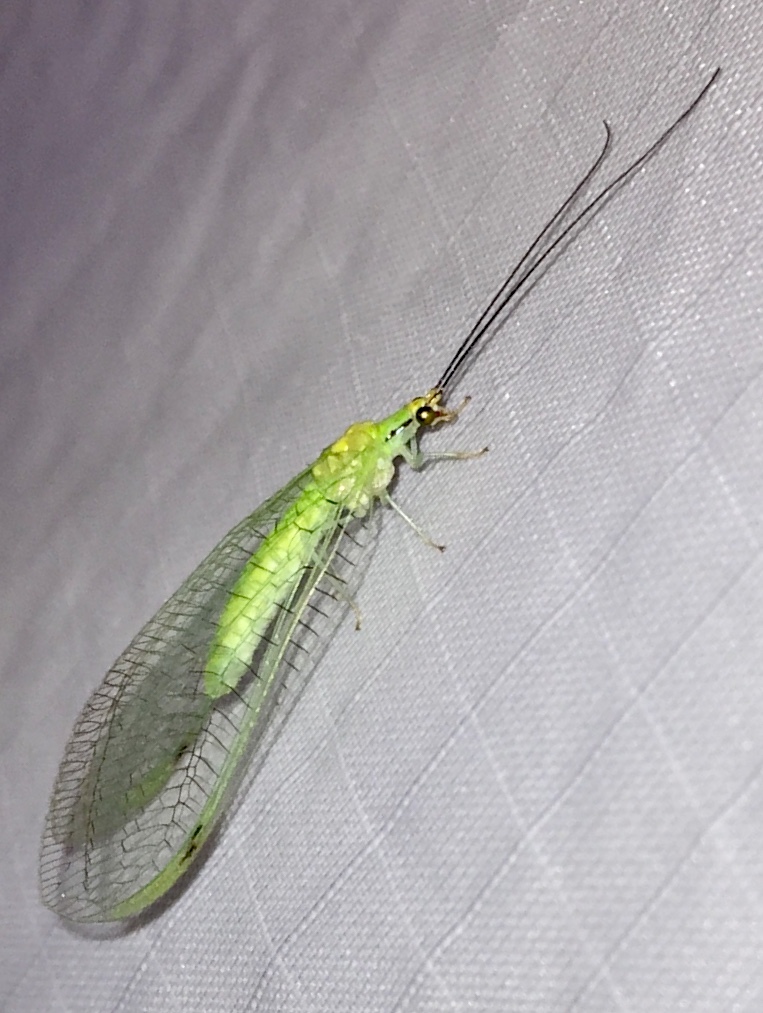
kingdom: Animalia
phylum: Arthropoda
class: Insecta
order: Neuroptera
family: Chrysopidae
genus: Leucochrysa
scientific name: Leucochrysa pavida
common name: Lichen-carrying green lacewing
